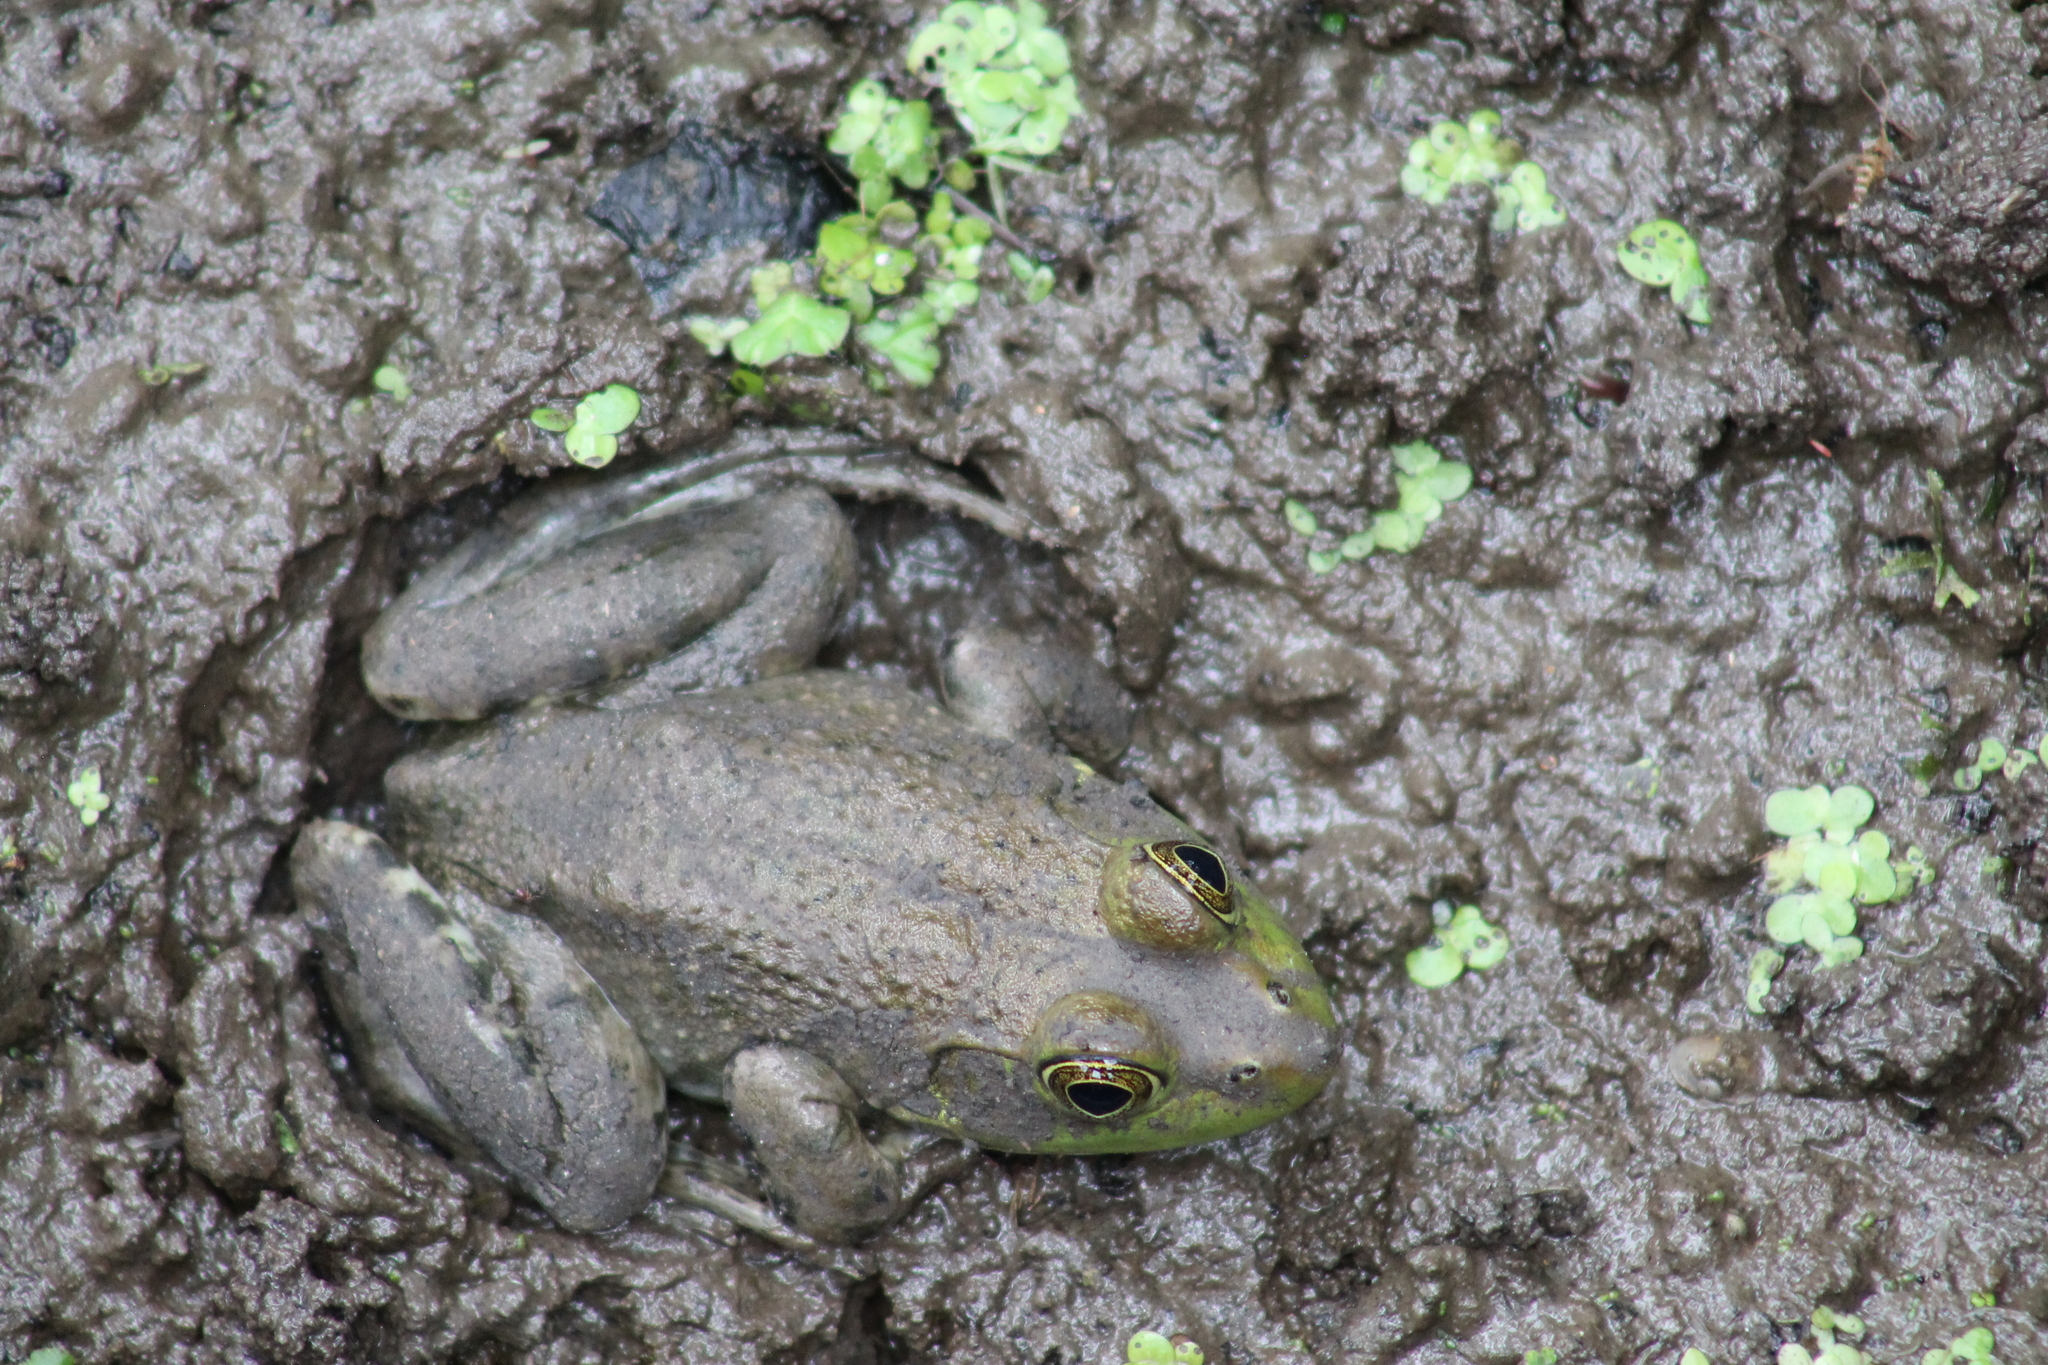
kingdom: Animalia
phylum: Chordata
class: Amphibia
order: Anura
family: Ranidae
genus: Lithobates
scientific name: Lithobates catesbeianus
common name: American bullfrog
